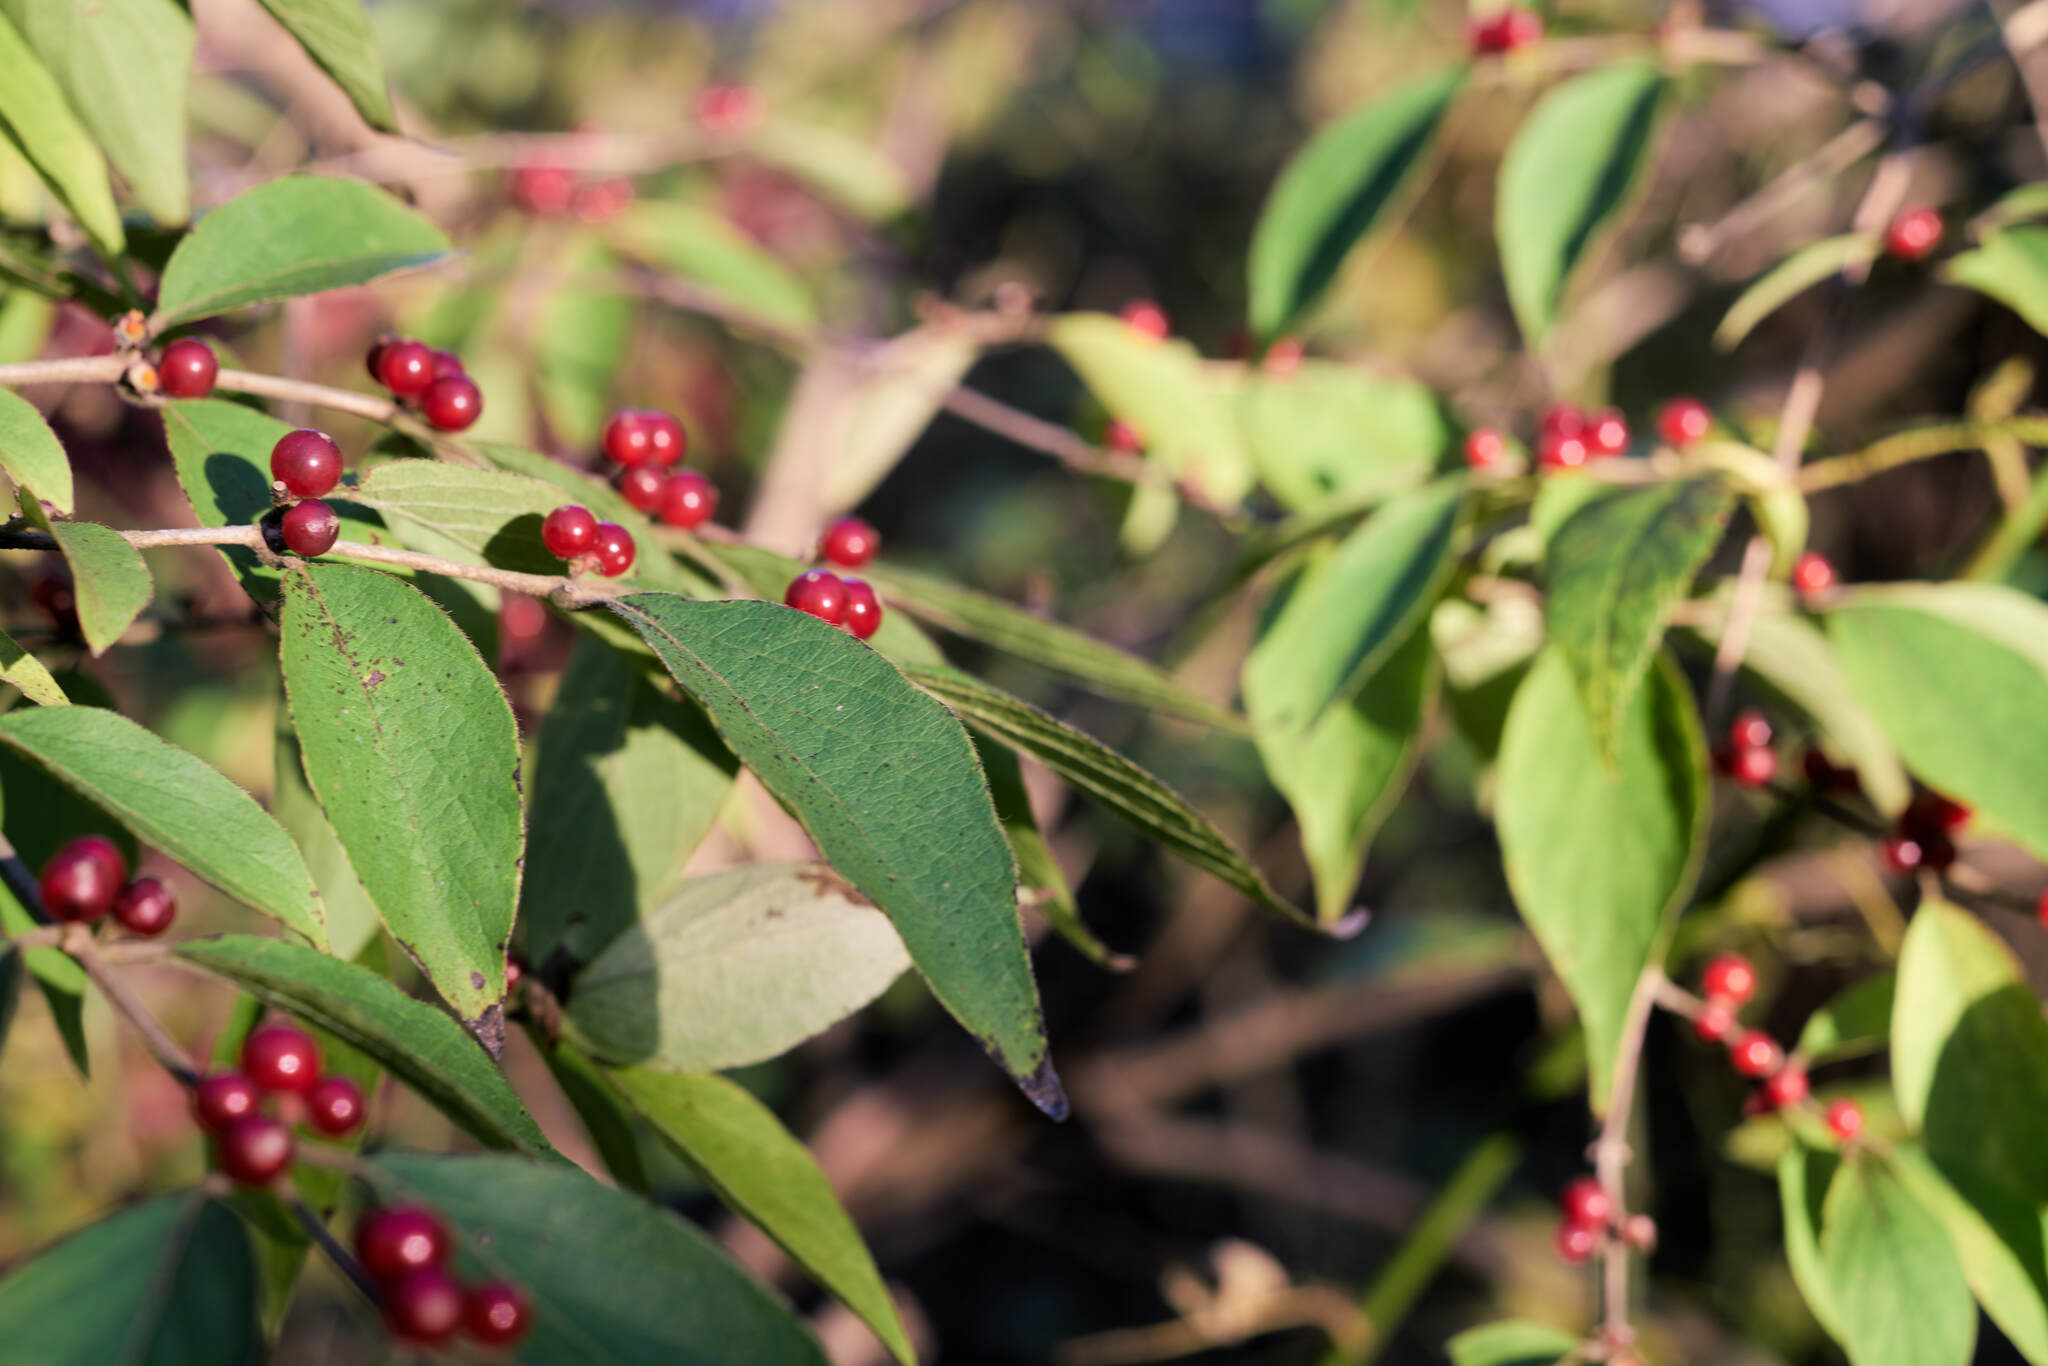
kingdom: Plantae
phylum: Tracheophyta
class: Magnoliopsida
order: Dipsacales
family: Caprifoliaceae
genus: Lonicera
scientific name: Lonicera maackii
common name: Amur honeysuckle
